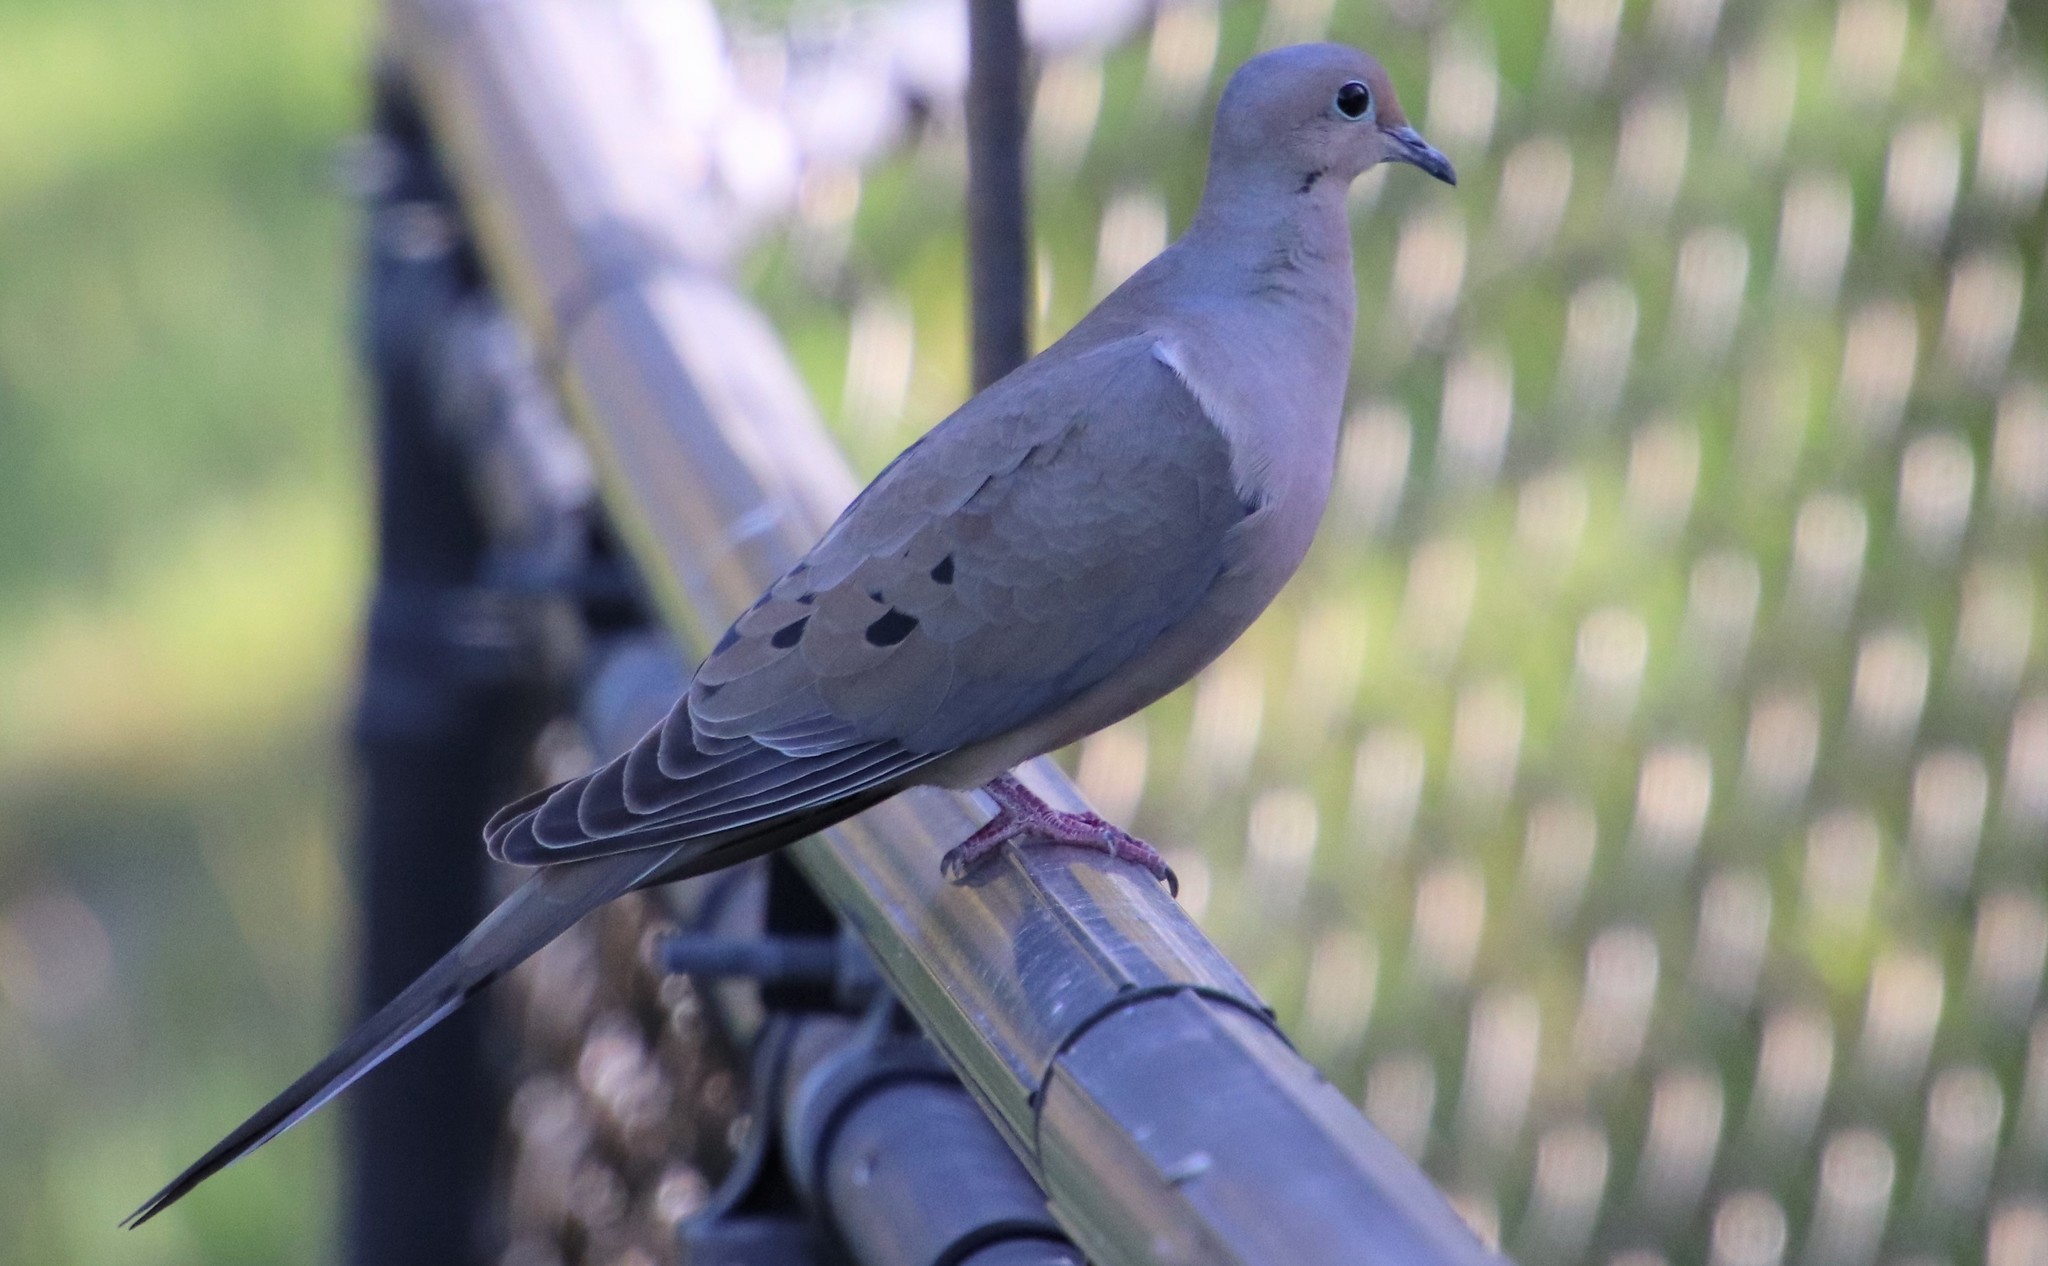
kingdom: Animalia
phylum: Chordata
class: Aves
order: Columbiformes
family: Columbidae
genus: Zenaida
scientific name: Zenaida macroura
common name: Mourning dove
